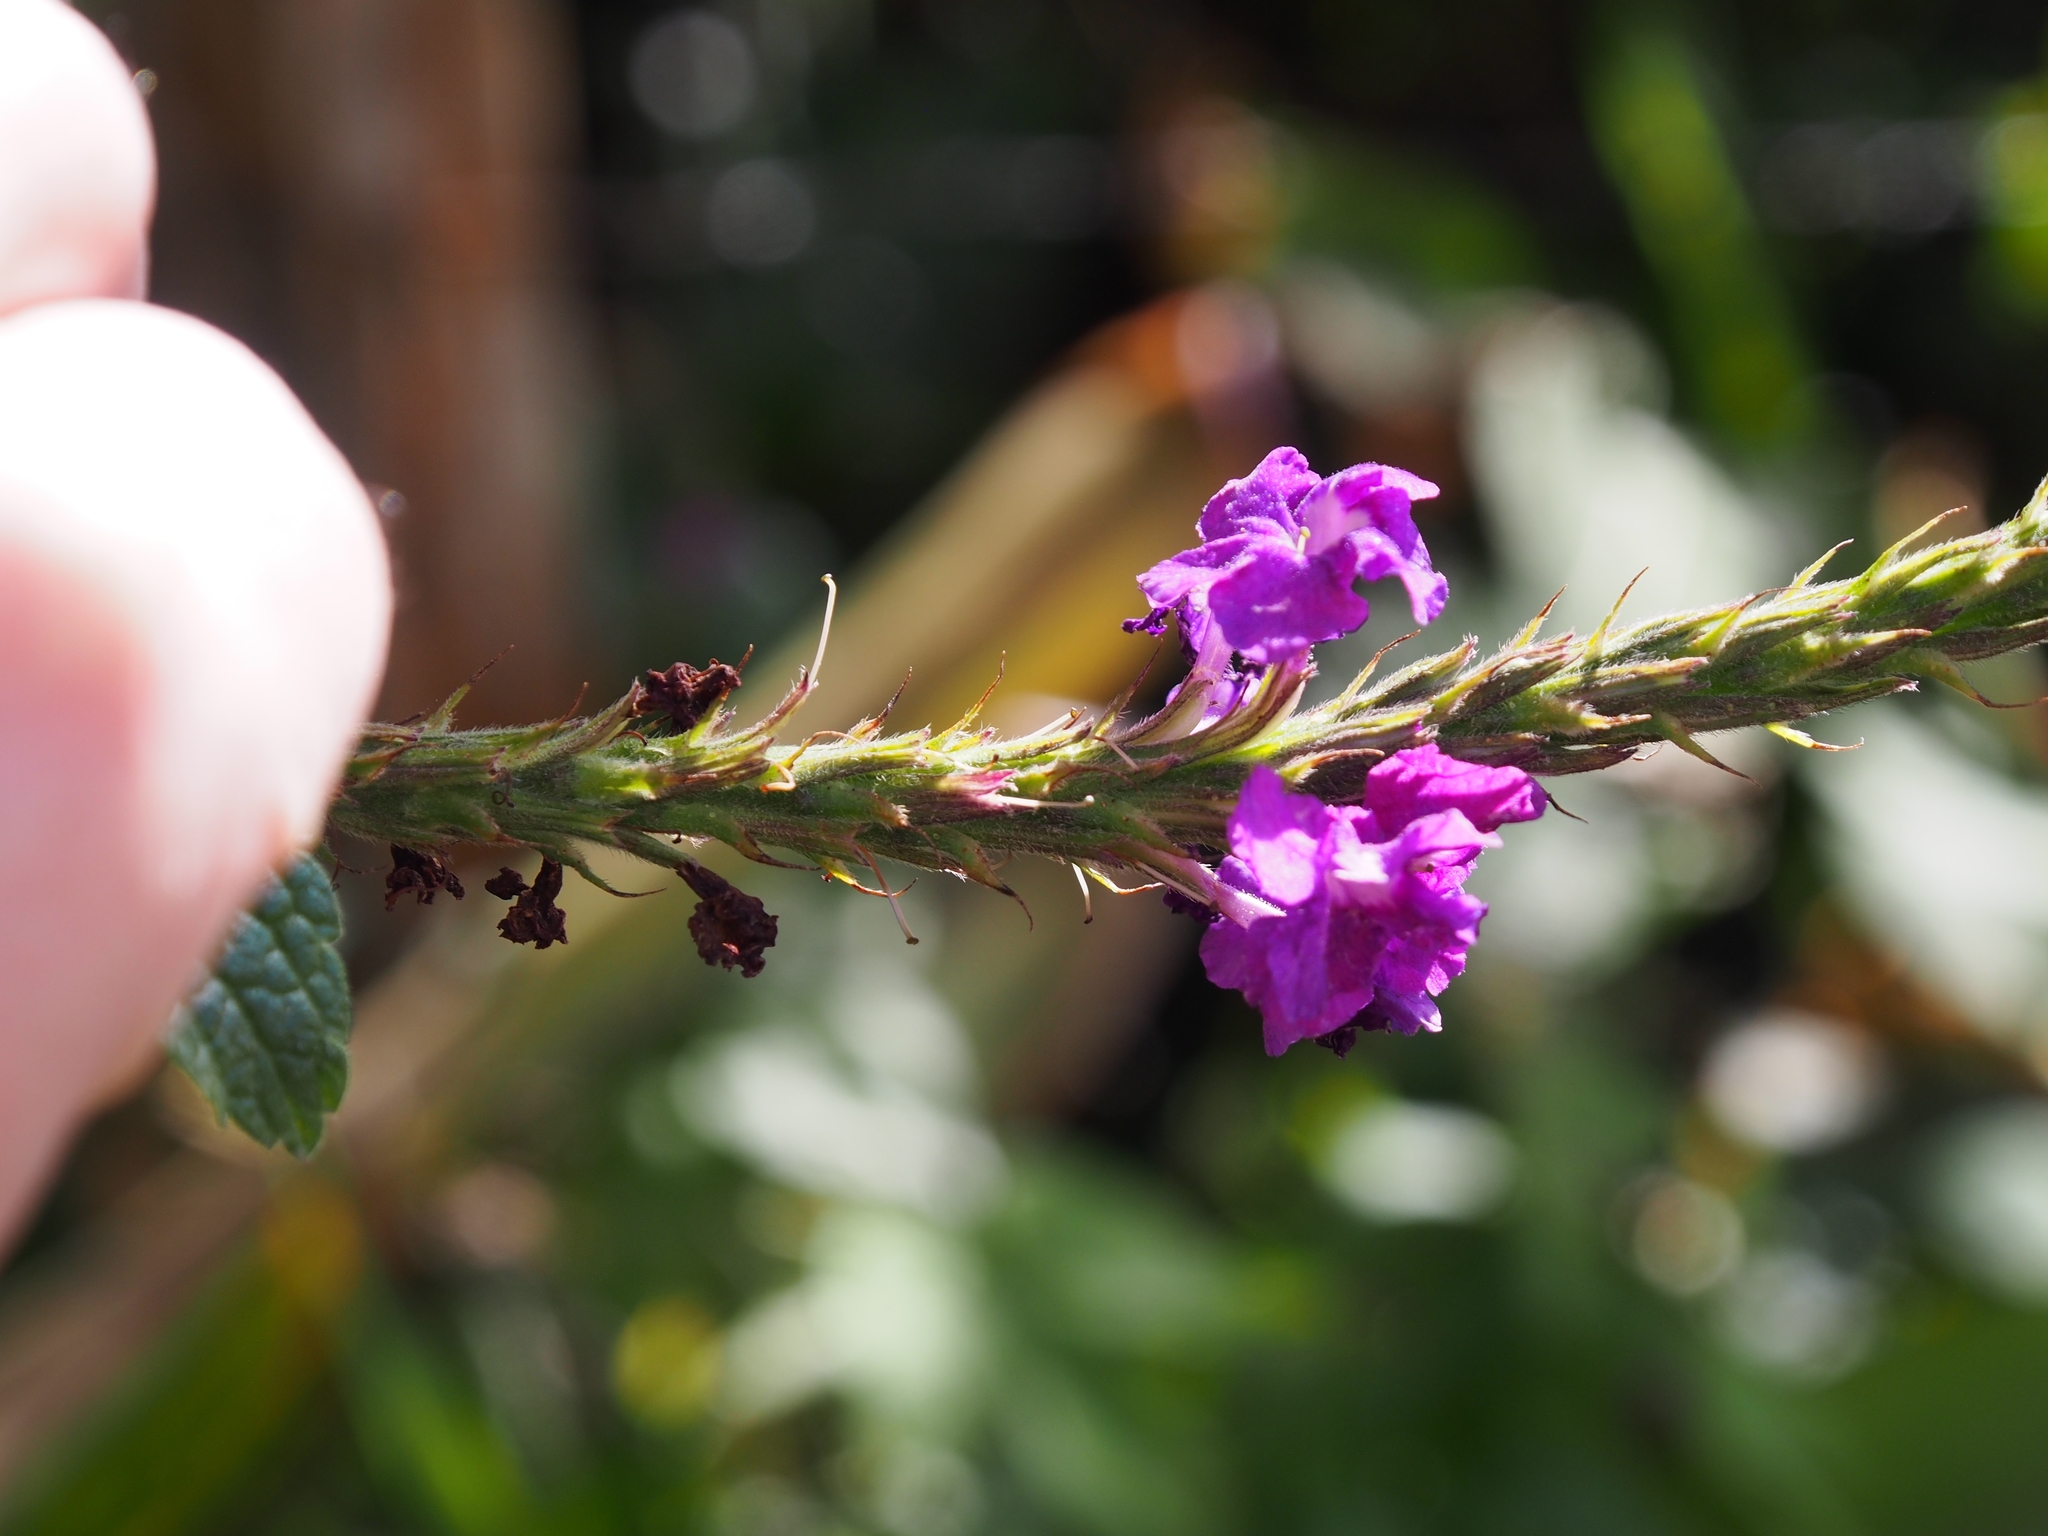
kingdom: Plantae
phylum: Tracheophyta
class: Magnoliopsida
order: Lamiales
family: Verbenaceae
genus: Stachytarpheta
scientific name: Stachytarpheta frantzii
